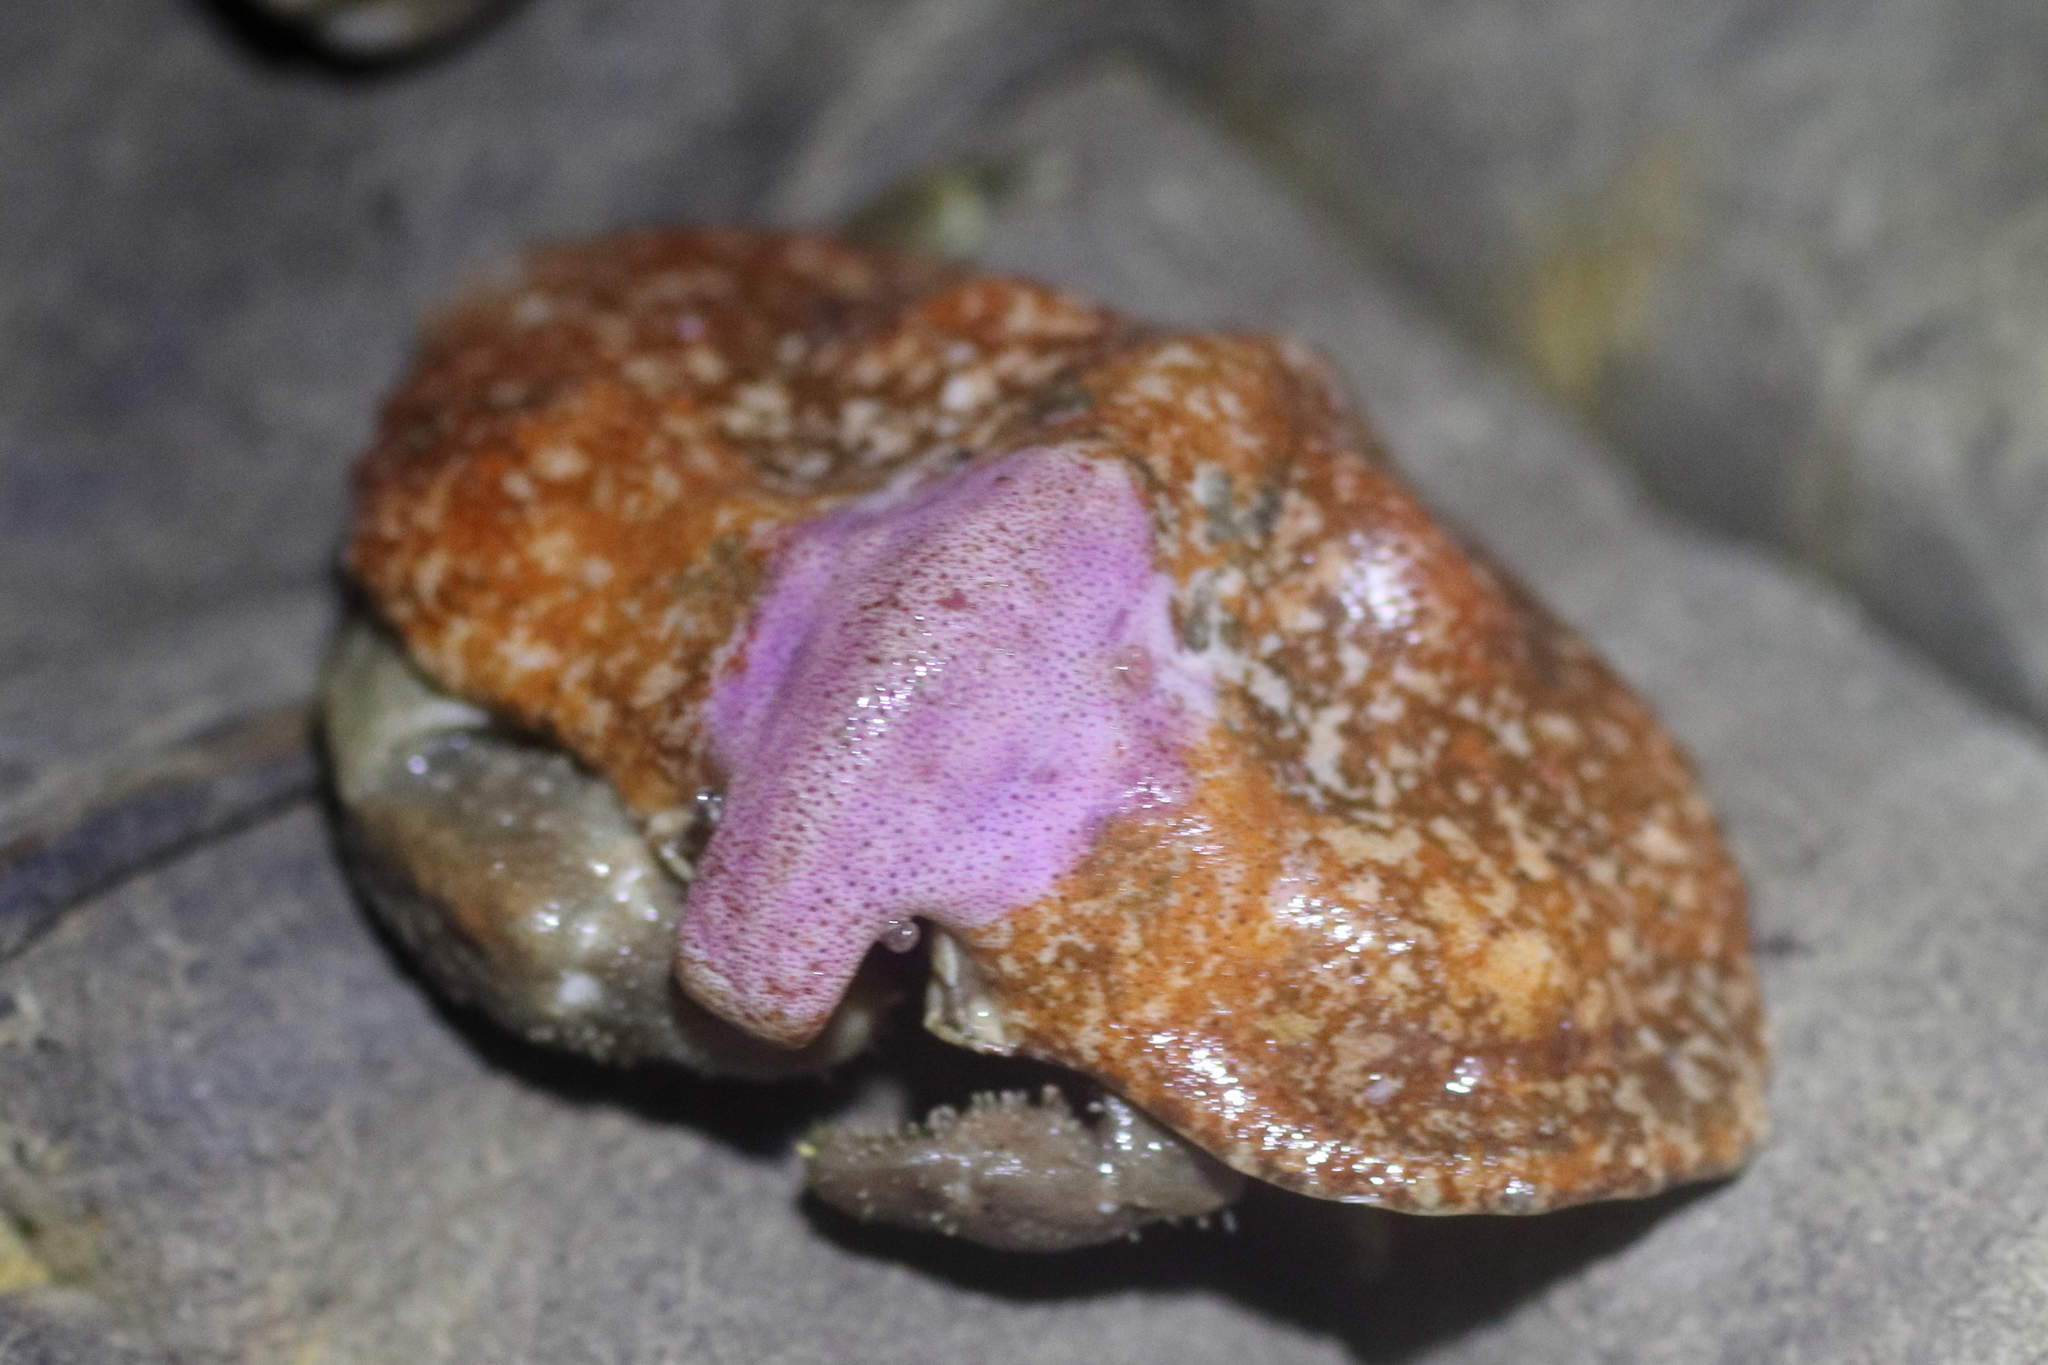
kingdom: Animalia
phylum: Arthropoda
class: Malacostraca
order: Decapoda
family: Lithodidae
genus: Cryptolithodes
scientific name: Cryptolithodes typicus
